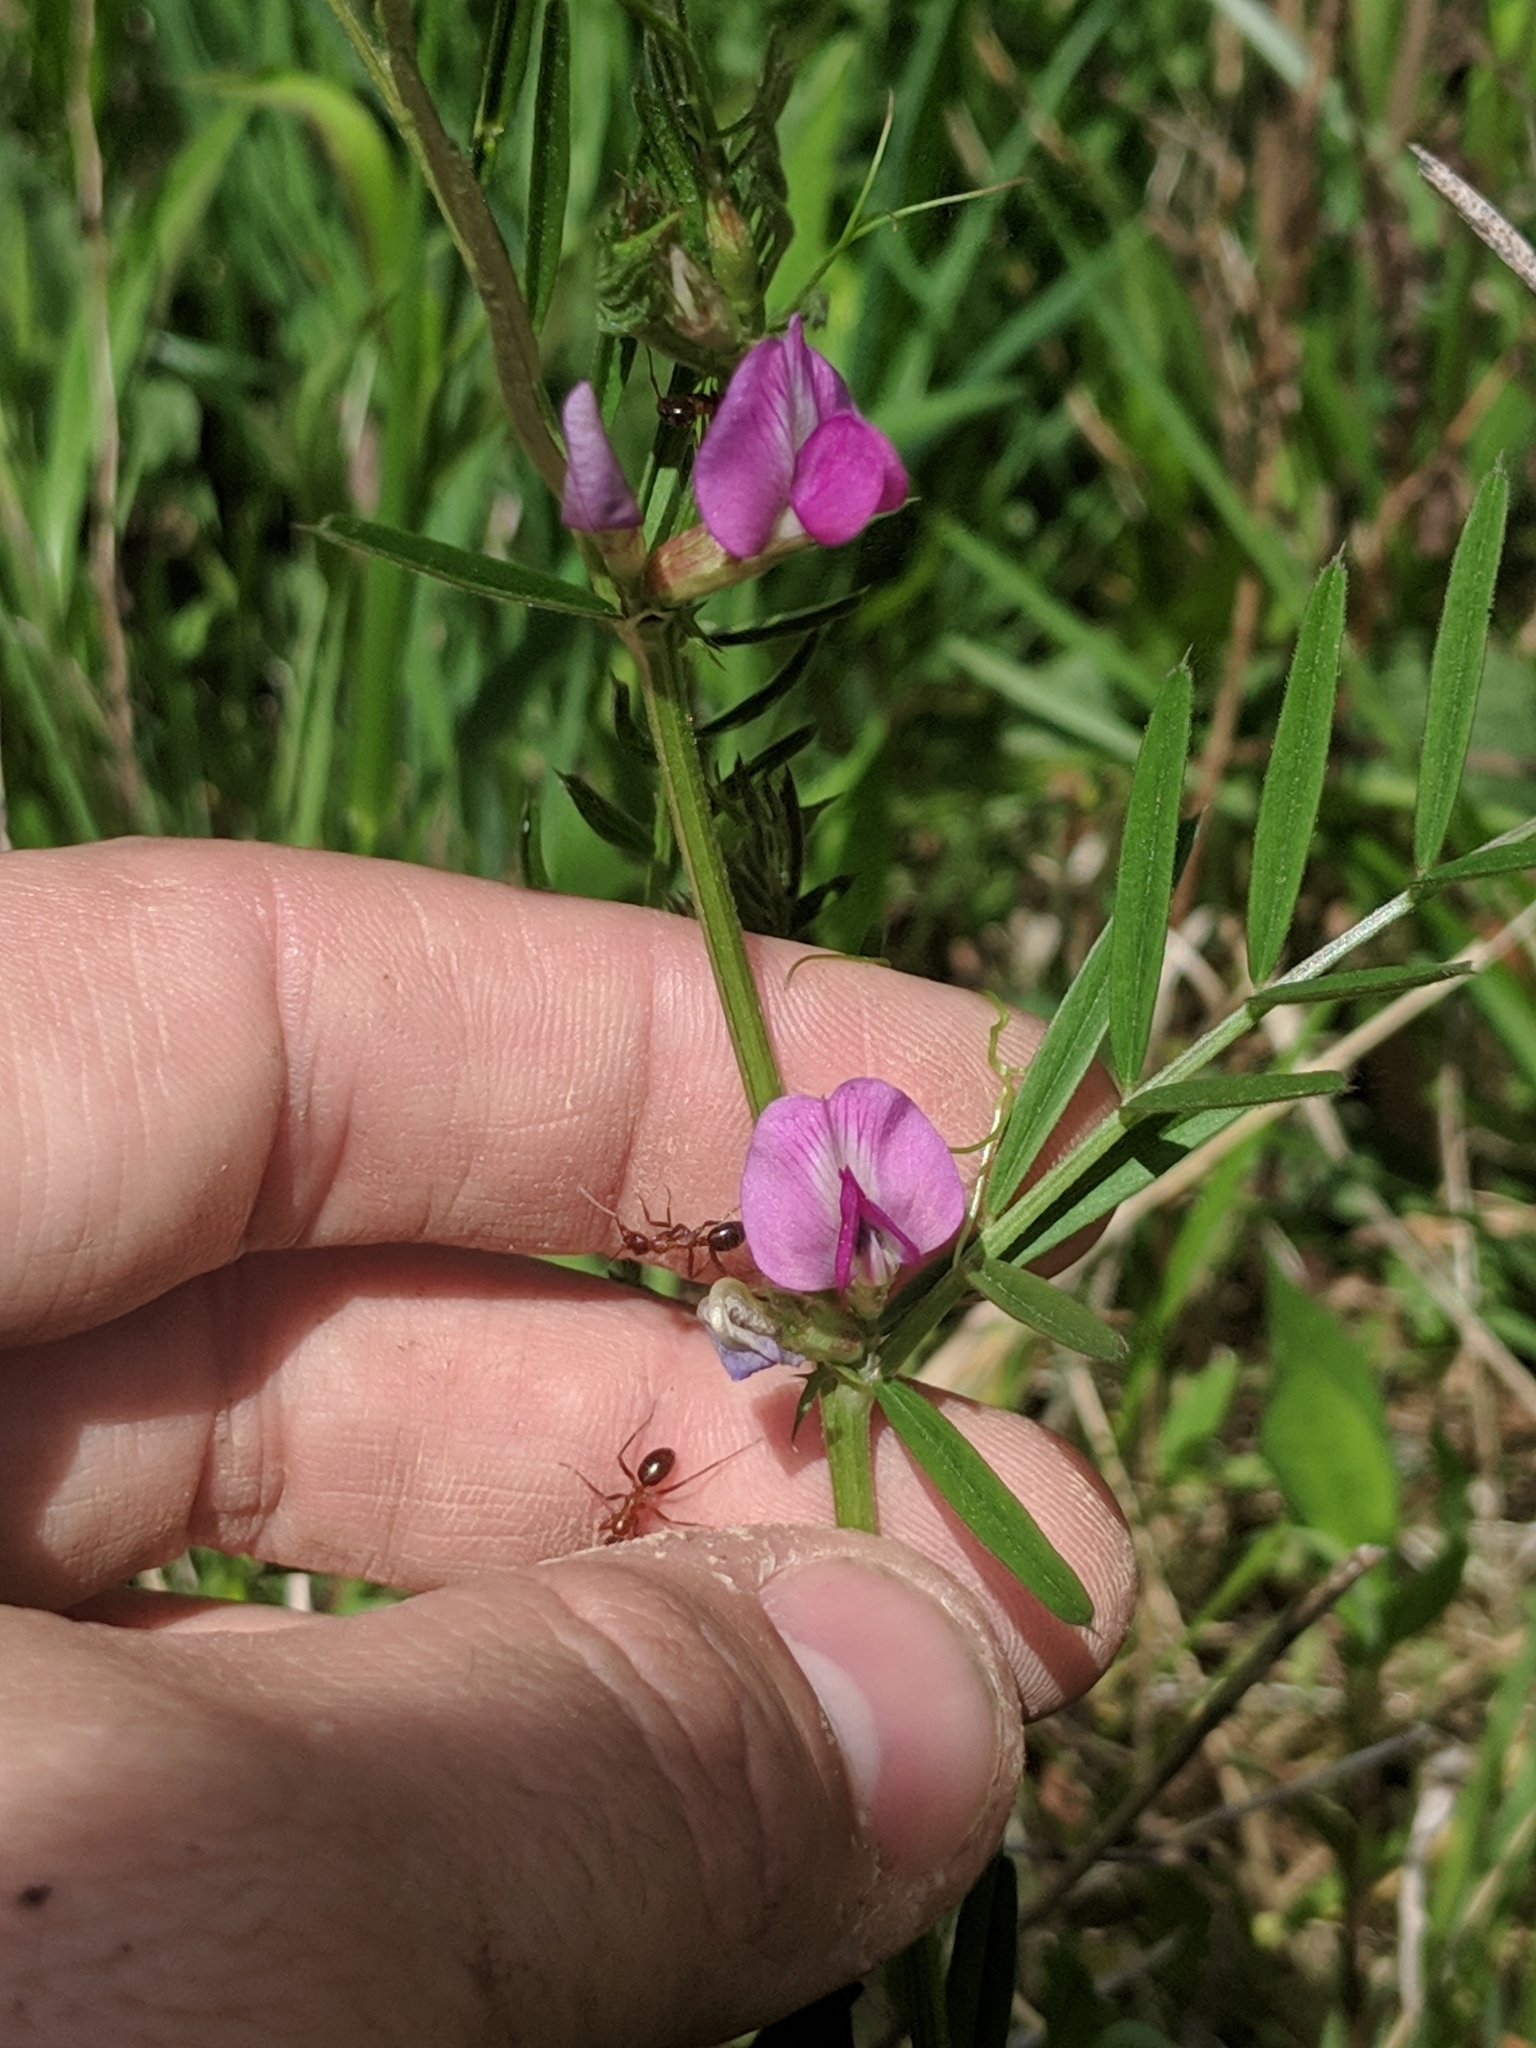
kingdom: Plantae
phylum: Tracheophyta
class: Magnoliopsida
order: Fabales
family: Fabaceae
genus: Vicia
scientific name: Vicia sativa
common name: Garden vetch
